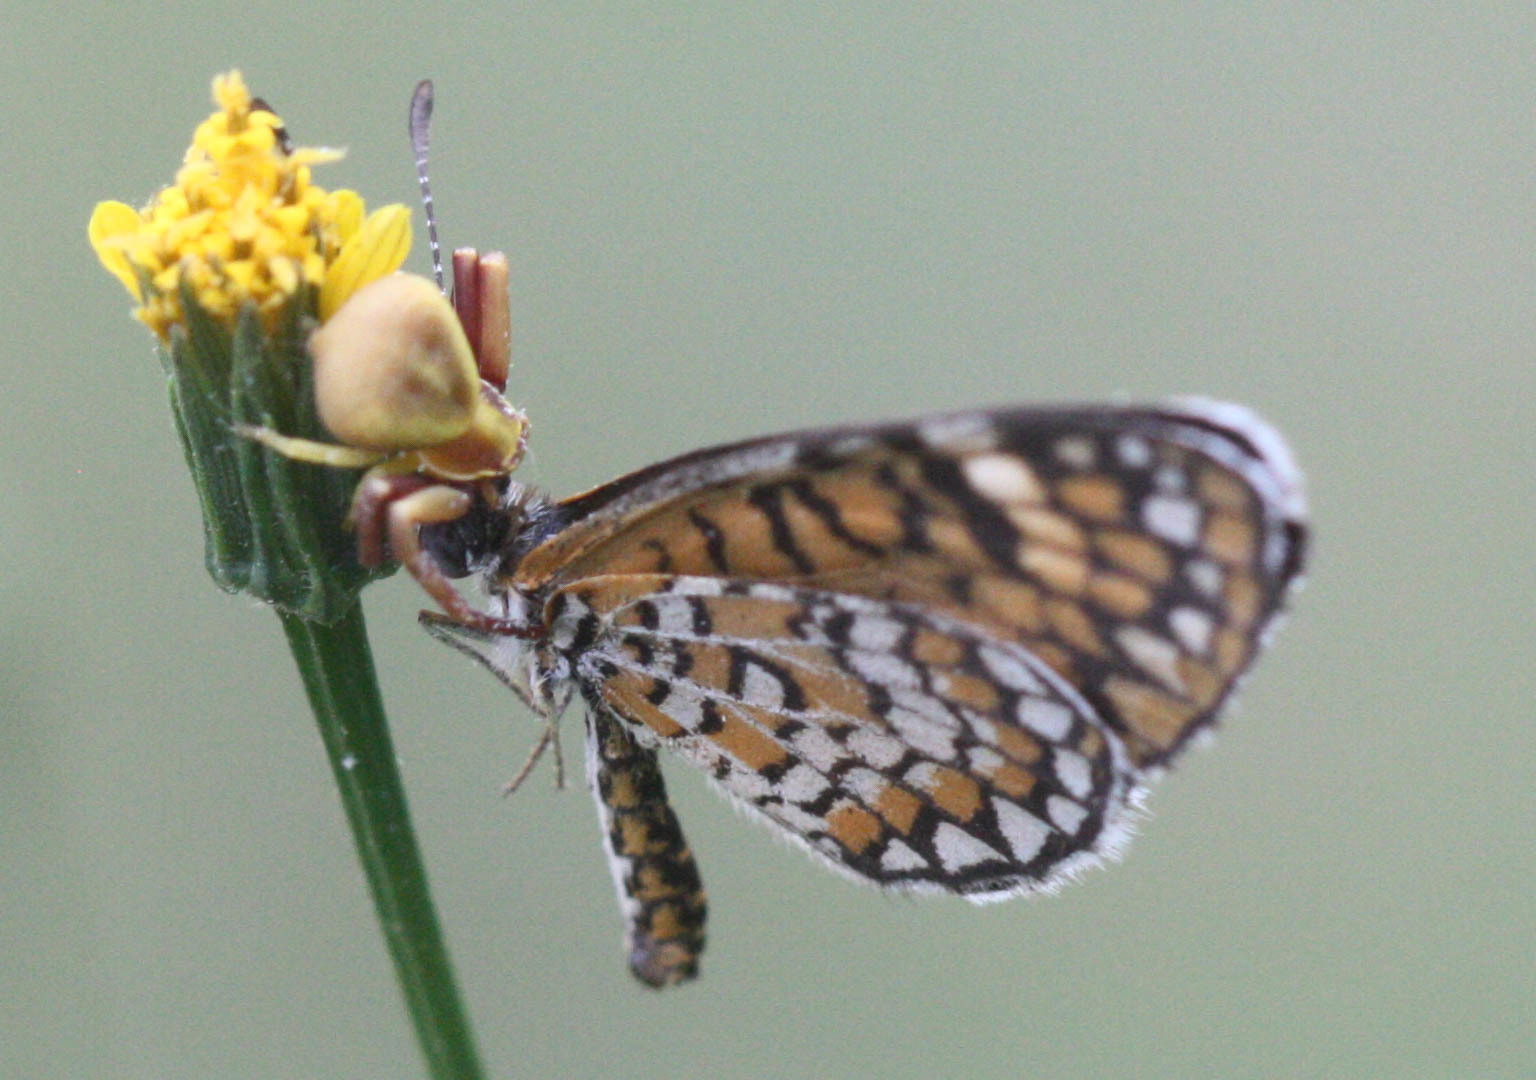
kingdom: Animalia
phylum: Arthropoda
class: Arachnida
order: Araneae
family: Thomisidae
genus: Misumenoides
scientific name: Misumenoides formosipes
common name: White-banded crab spider
